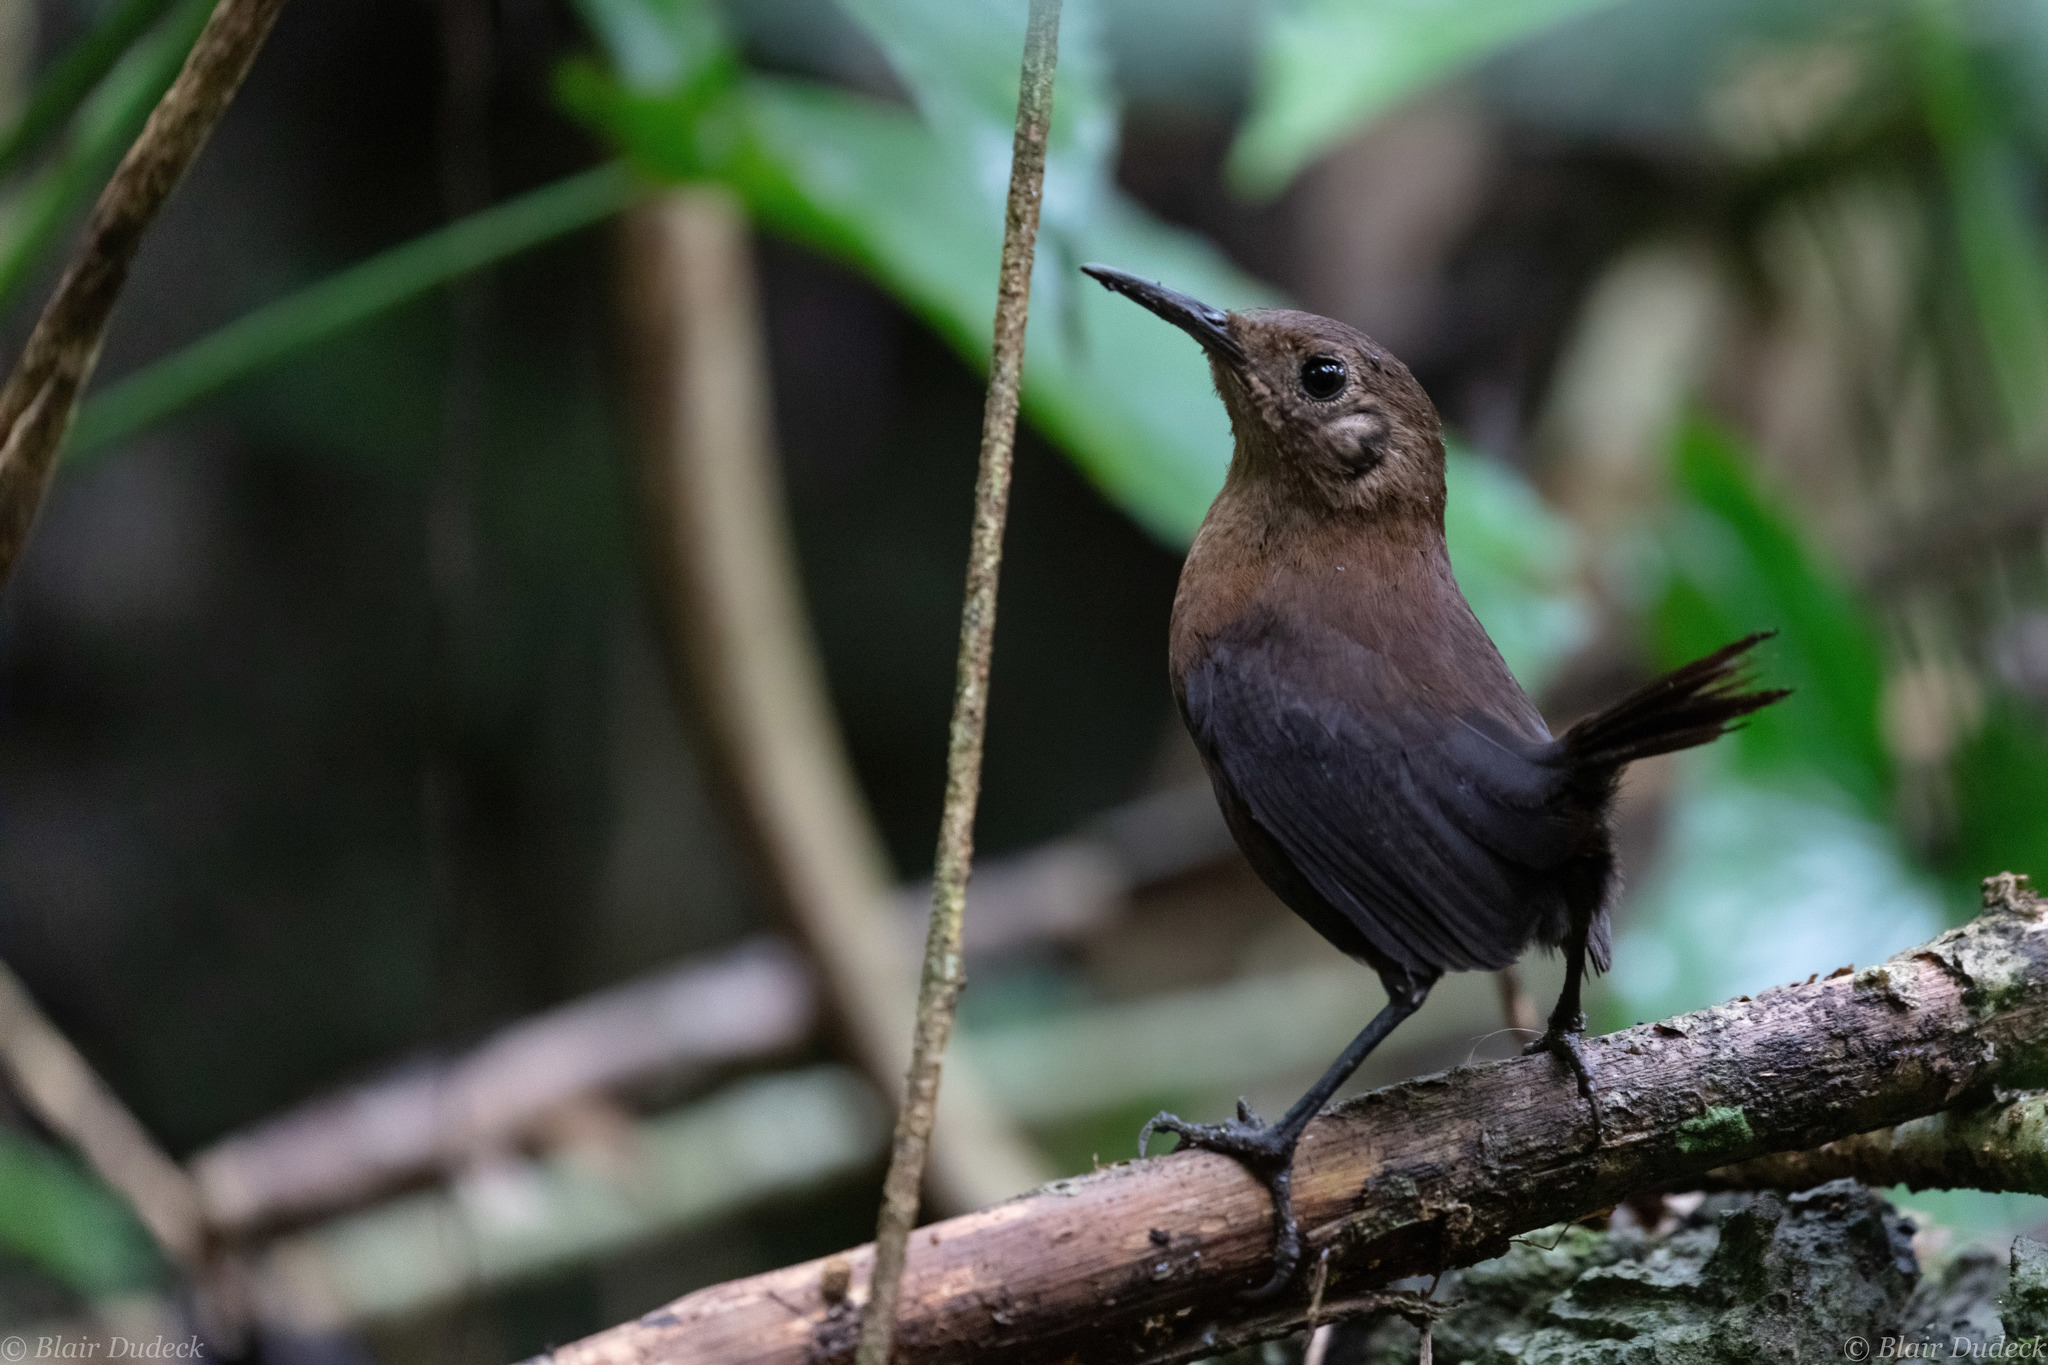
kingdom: Animalia
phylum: Chordata
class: Aves
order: Passeriformes
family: Troglodytidae
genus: Hylorchilus
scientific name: Hylorchilus sumichrasti
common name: Sumichrast's wren
